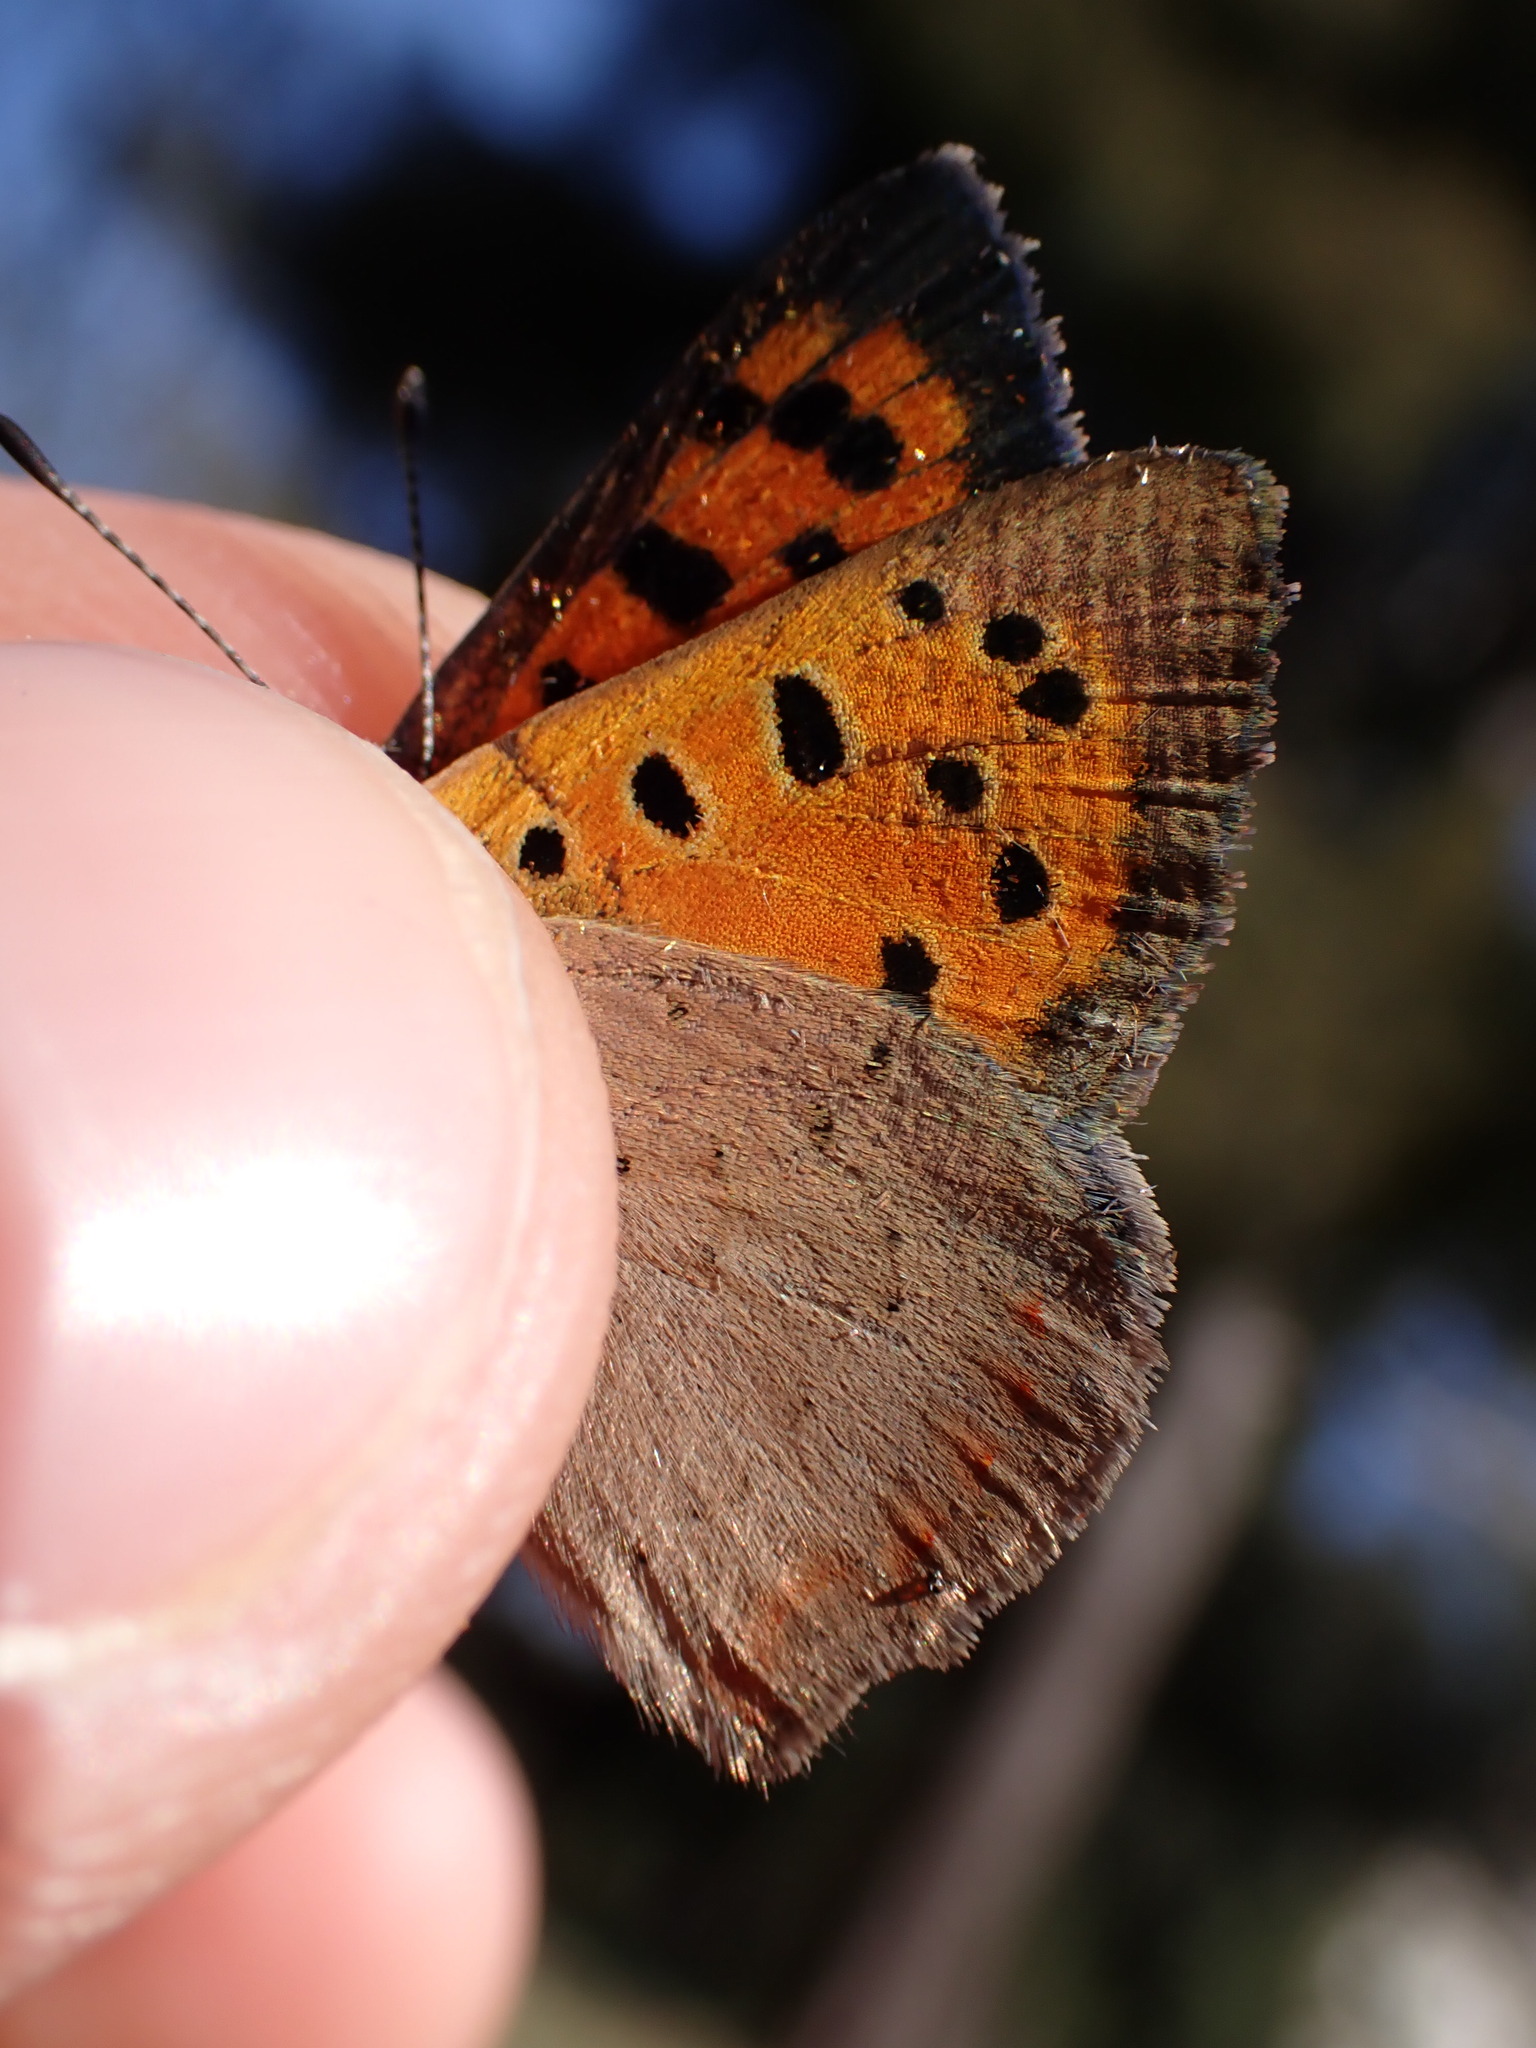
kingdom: Animalia
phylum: Arthropoda
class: Insecta
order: Lepidoptera
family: Lycaenidae
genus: Lycaena
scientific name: Lycaena phlaeas
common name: Small copper
